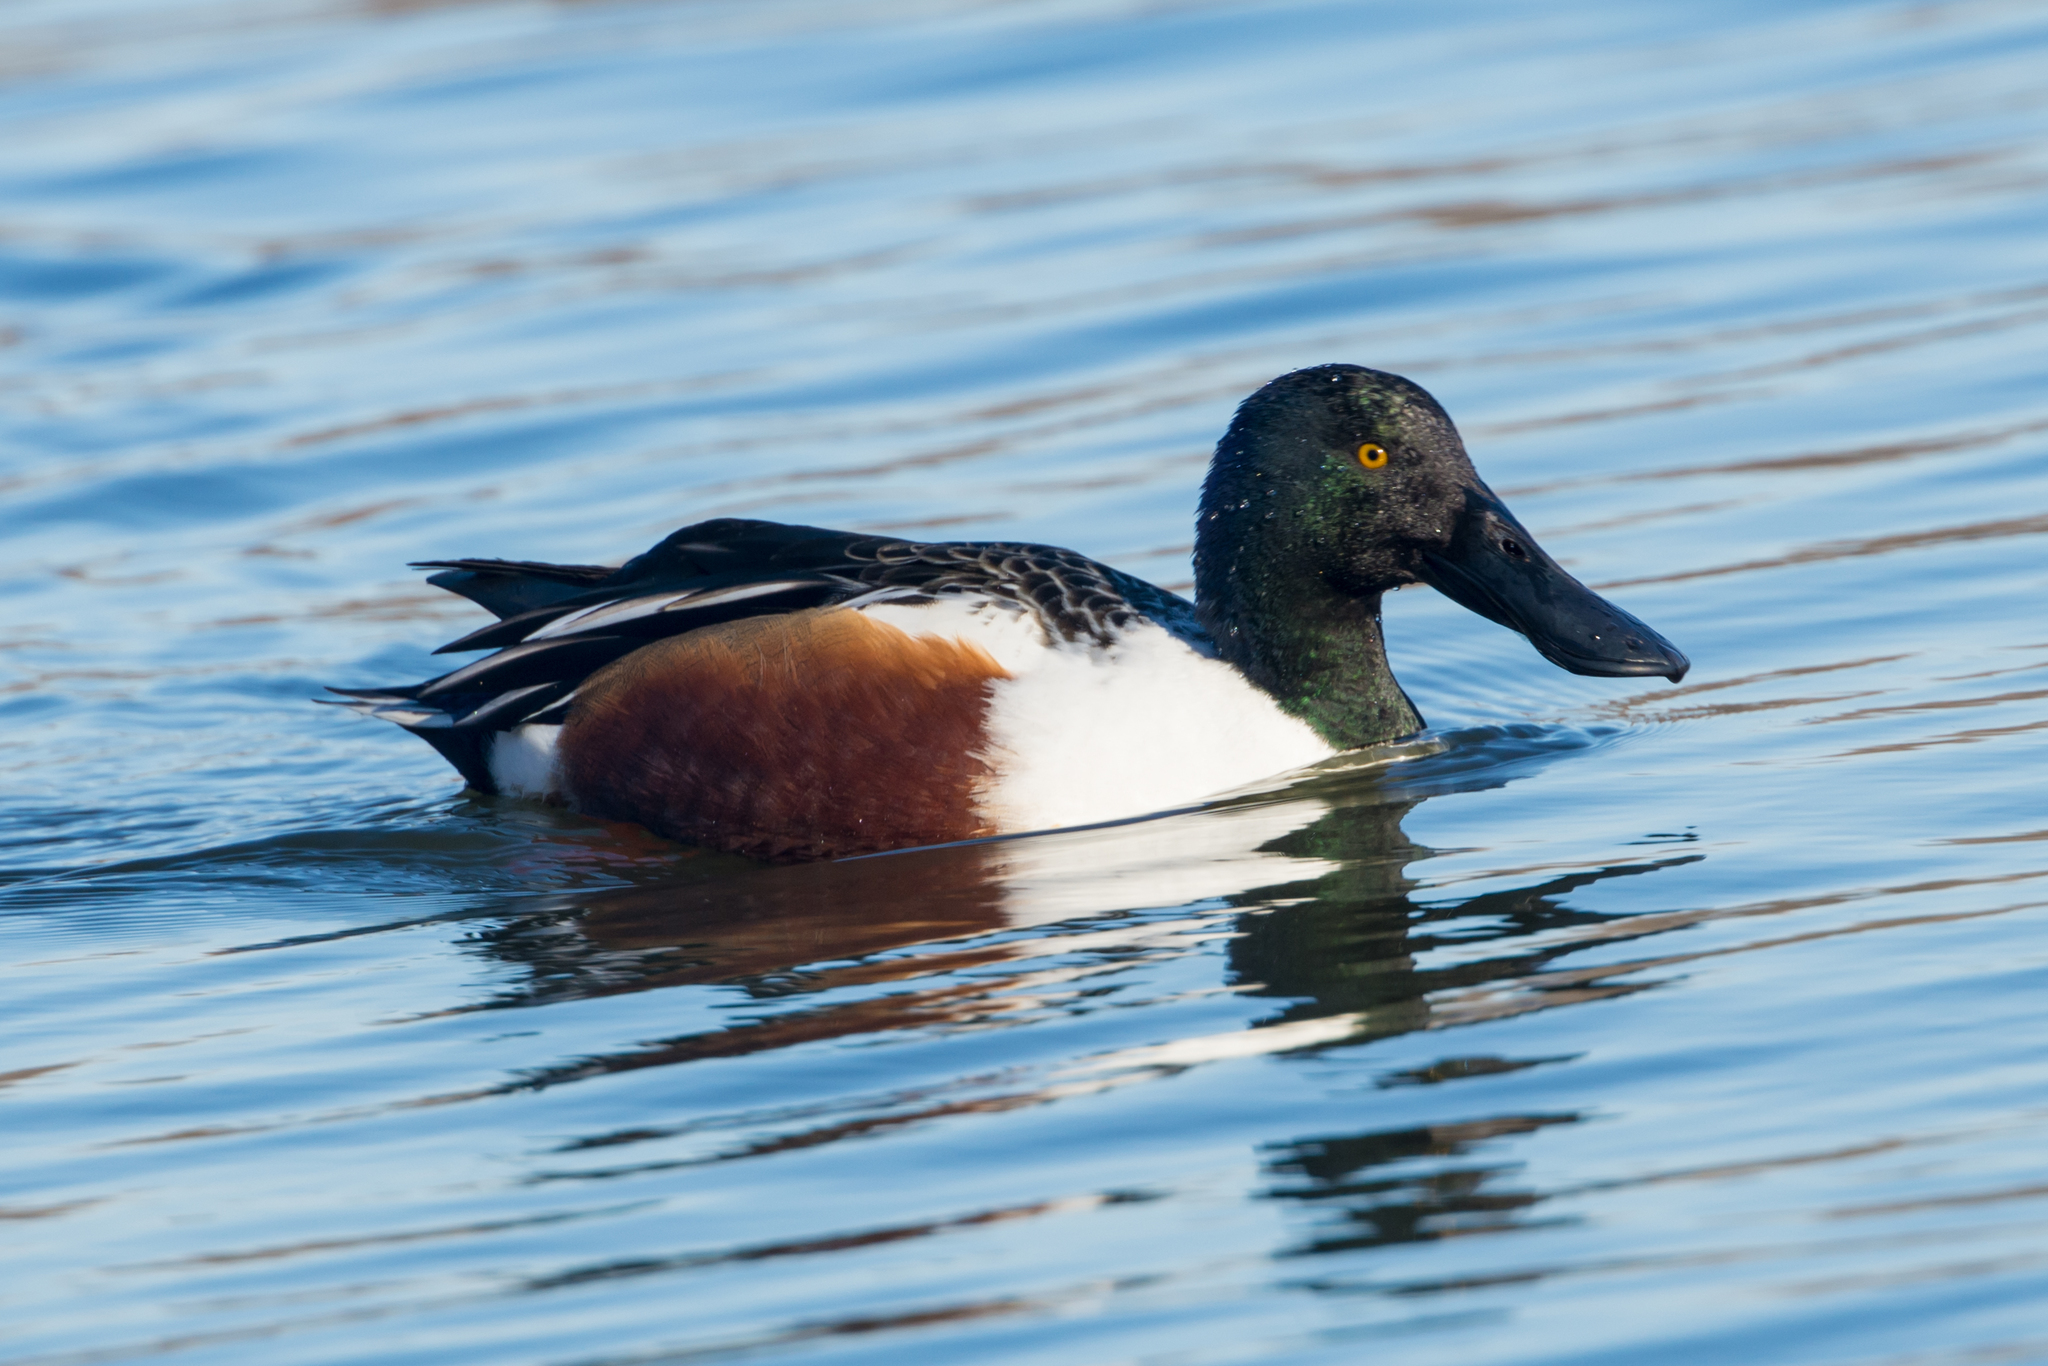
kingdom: Animalia
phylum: Chordata
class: Aves
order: Anseriformes
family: Anatidae
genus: Spatula
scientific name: Spatula clypeata
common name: Northern shoveler
